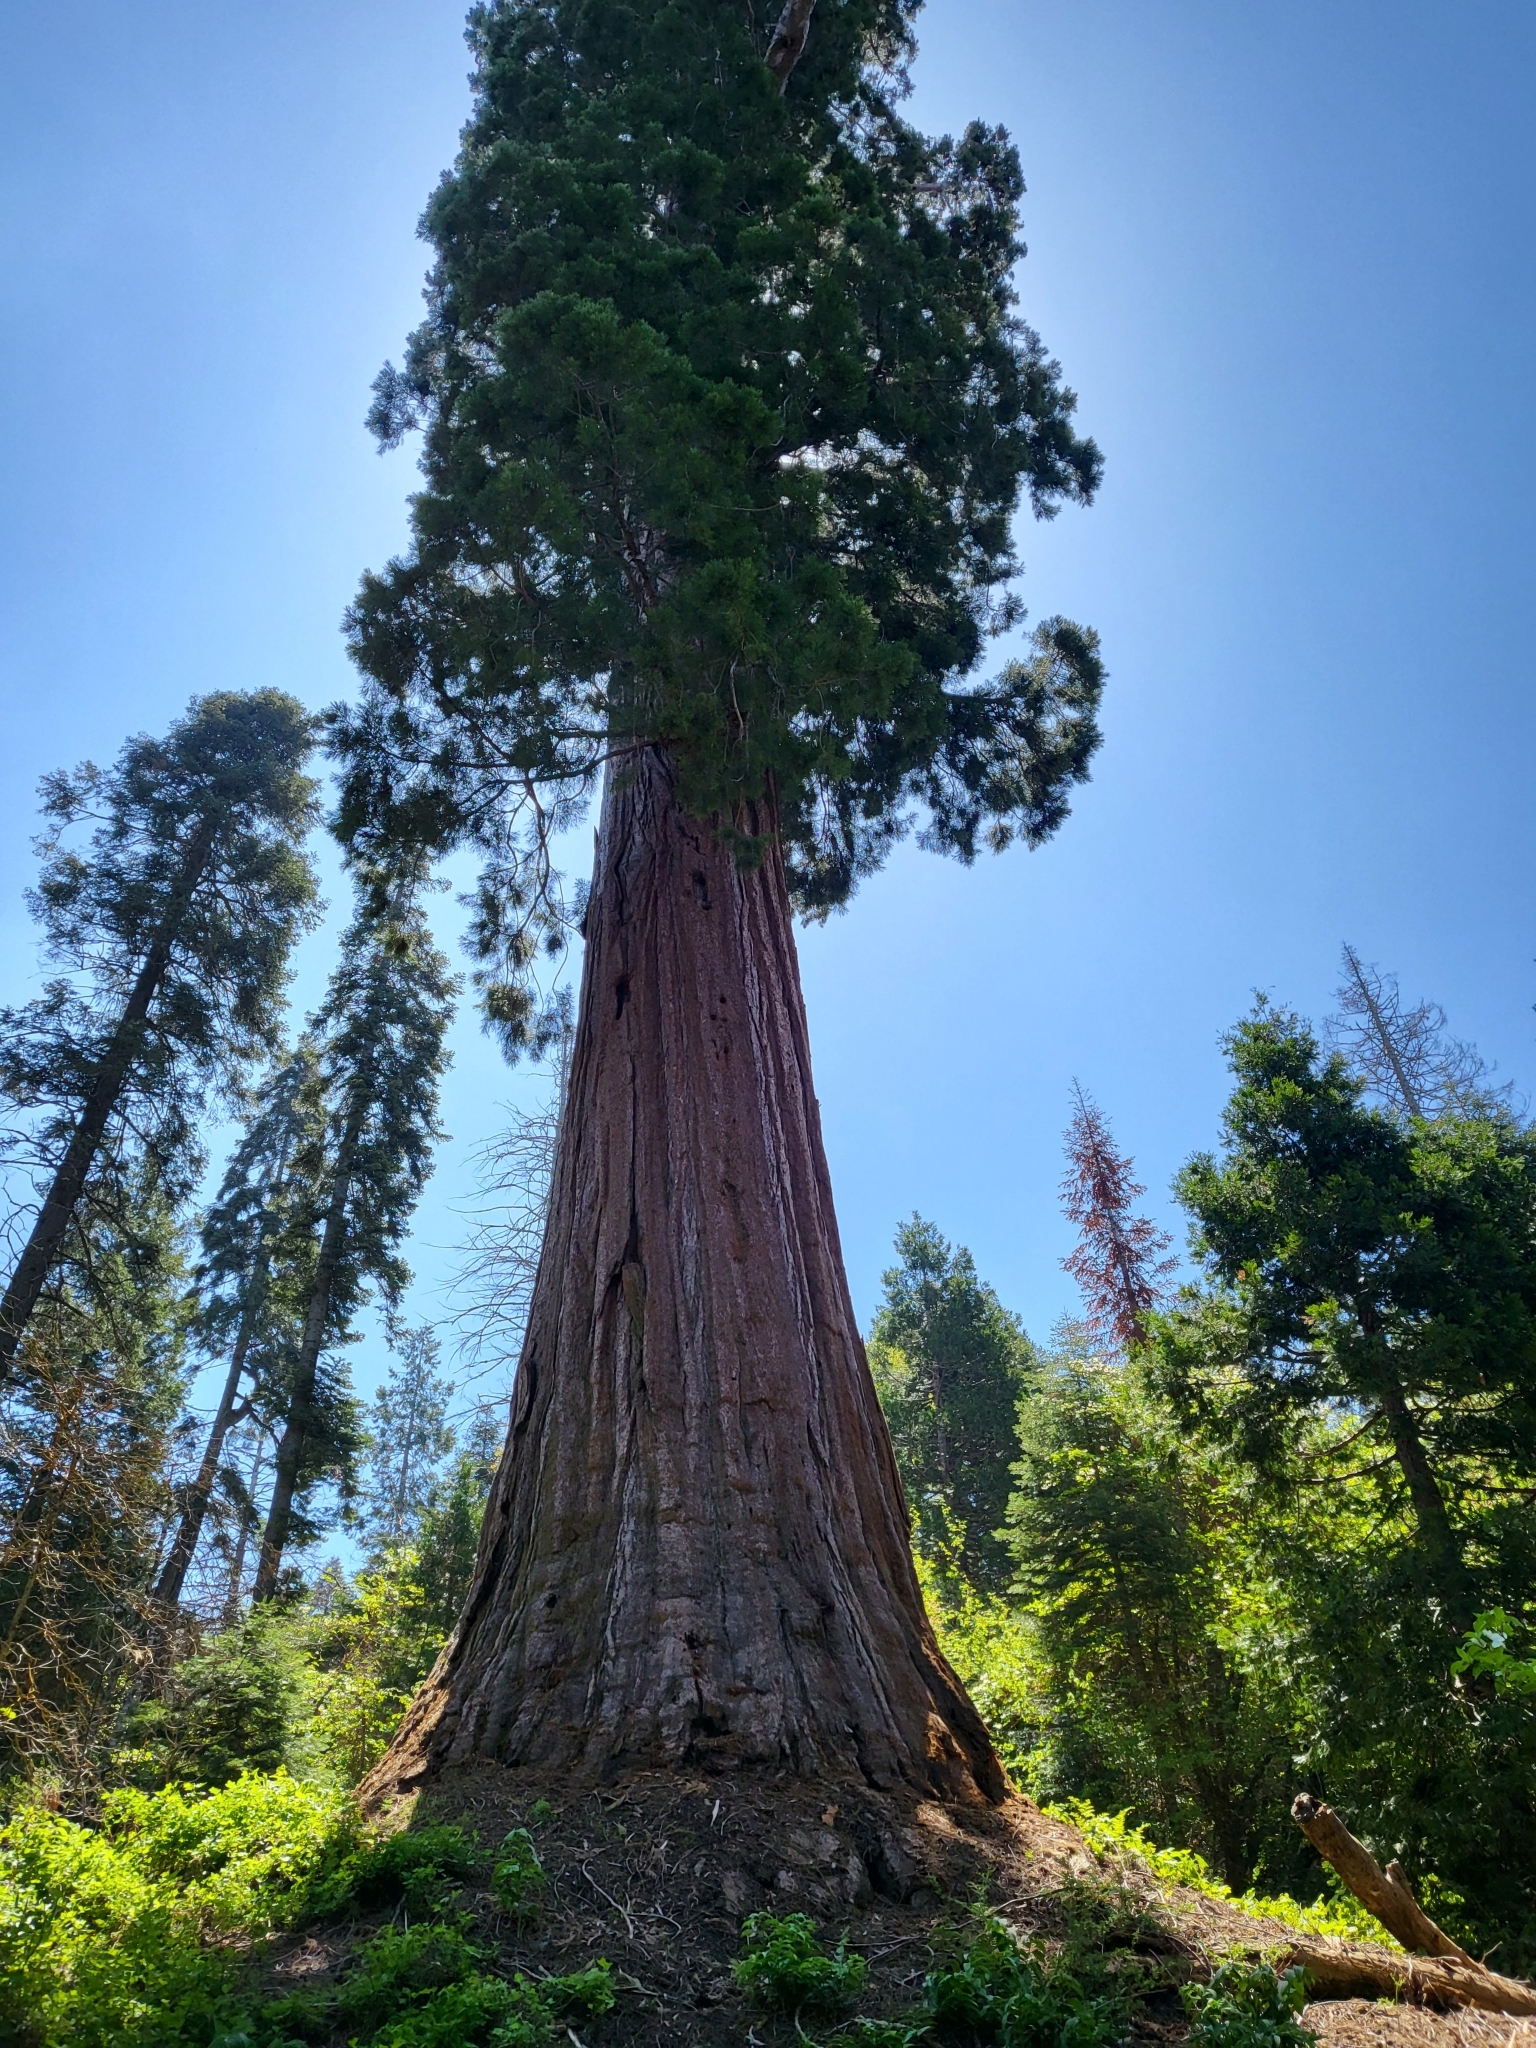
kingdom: Plantae
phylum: Tracheophyta
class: Pinopsida
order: Pinales
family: Cupressaceae
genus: Sequoiadendron
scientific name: Sequoiadendron giganteum
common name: Wellingtonia
